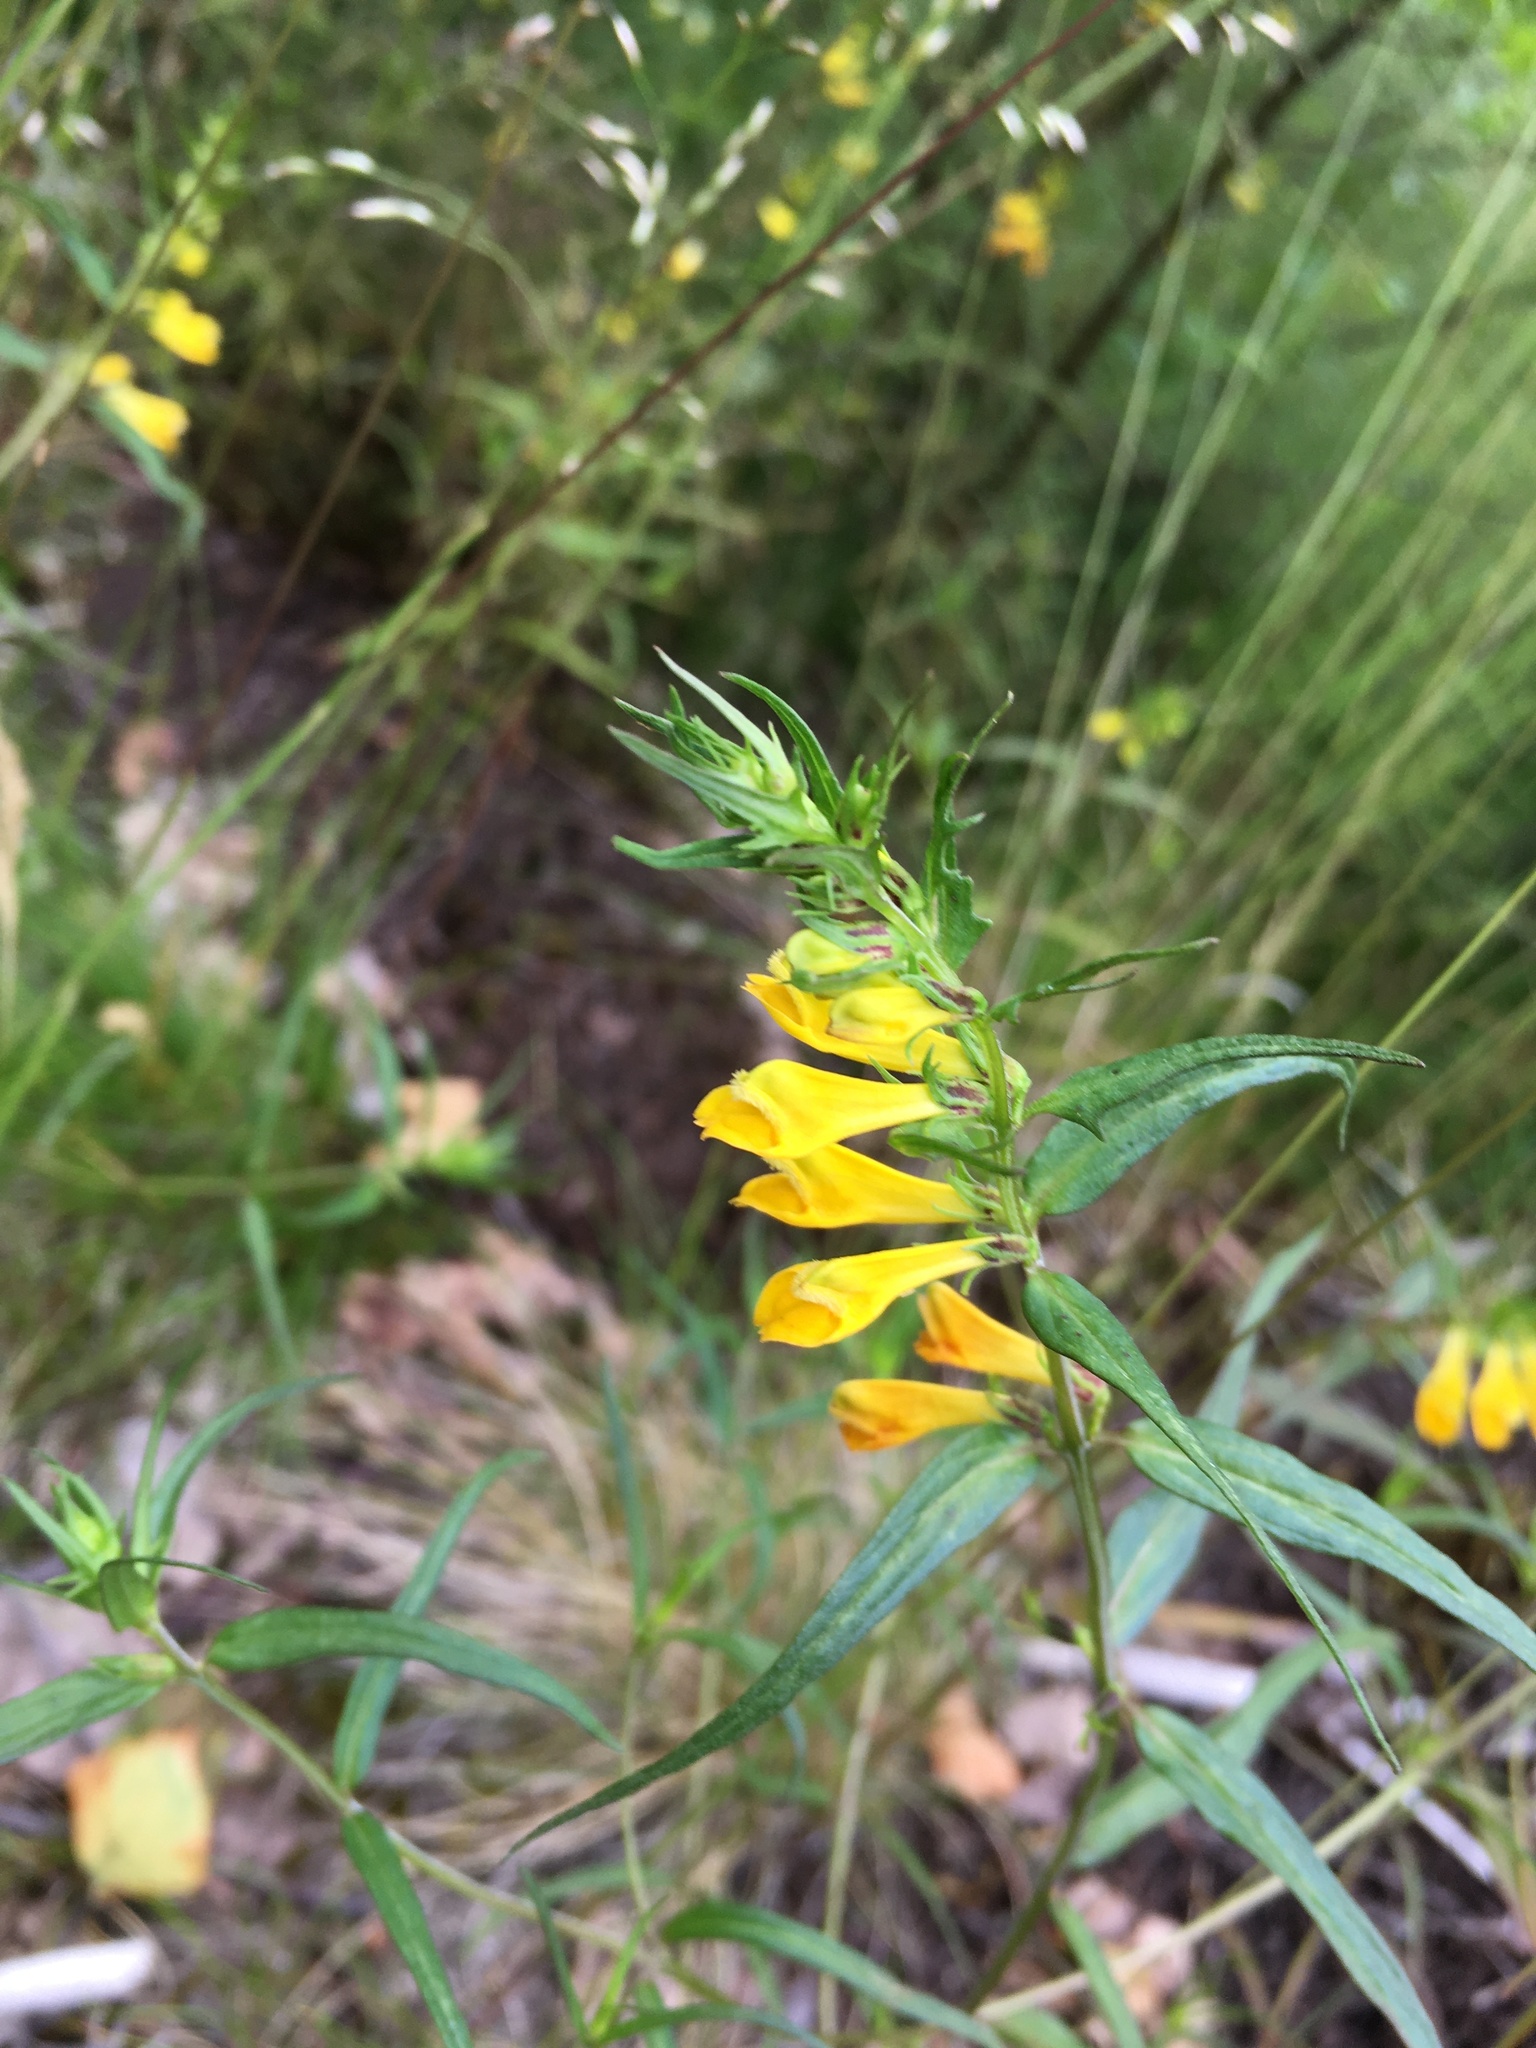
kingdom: Plantae
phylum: Tracheophyta
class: Magnoliopsida
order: Lamiales
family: Orobanchaceae
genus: Melampyrum
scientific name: Melampyrum pratense
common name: Common cow-wheat
